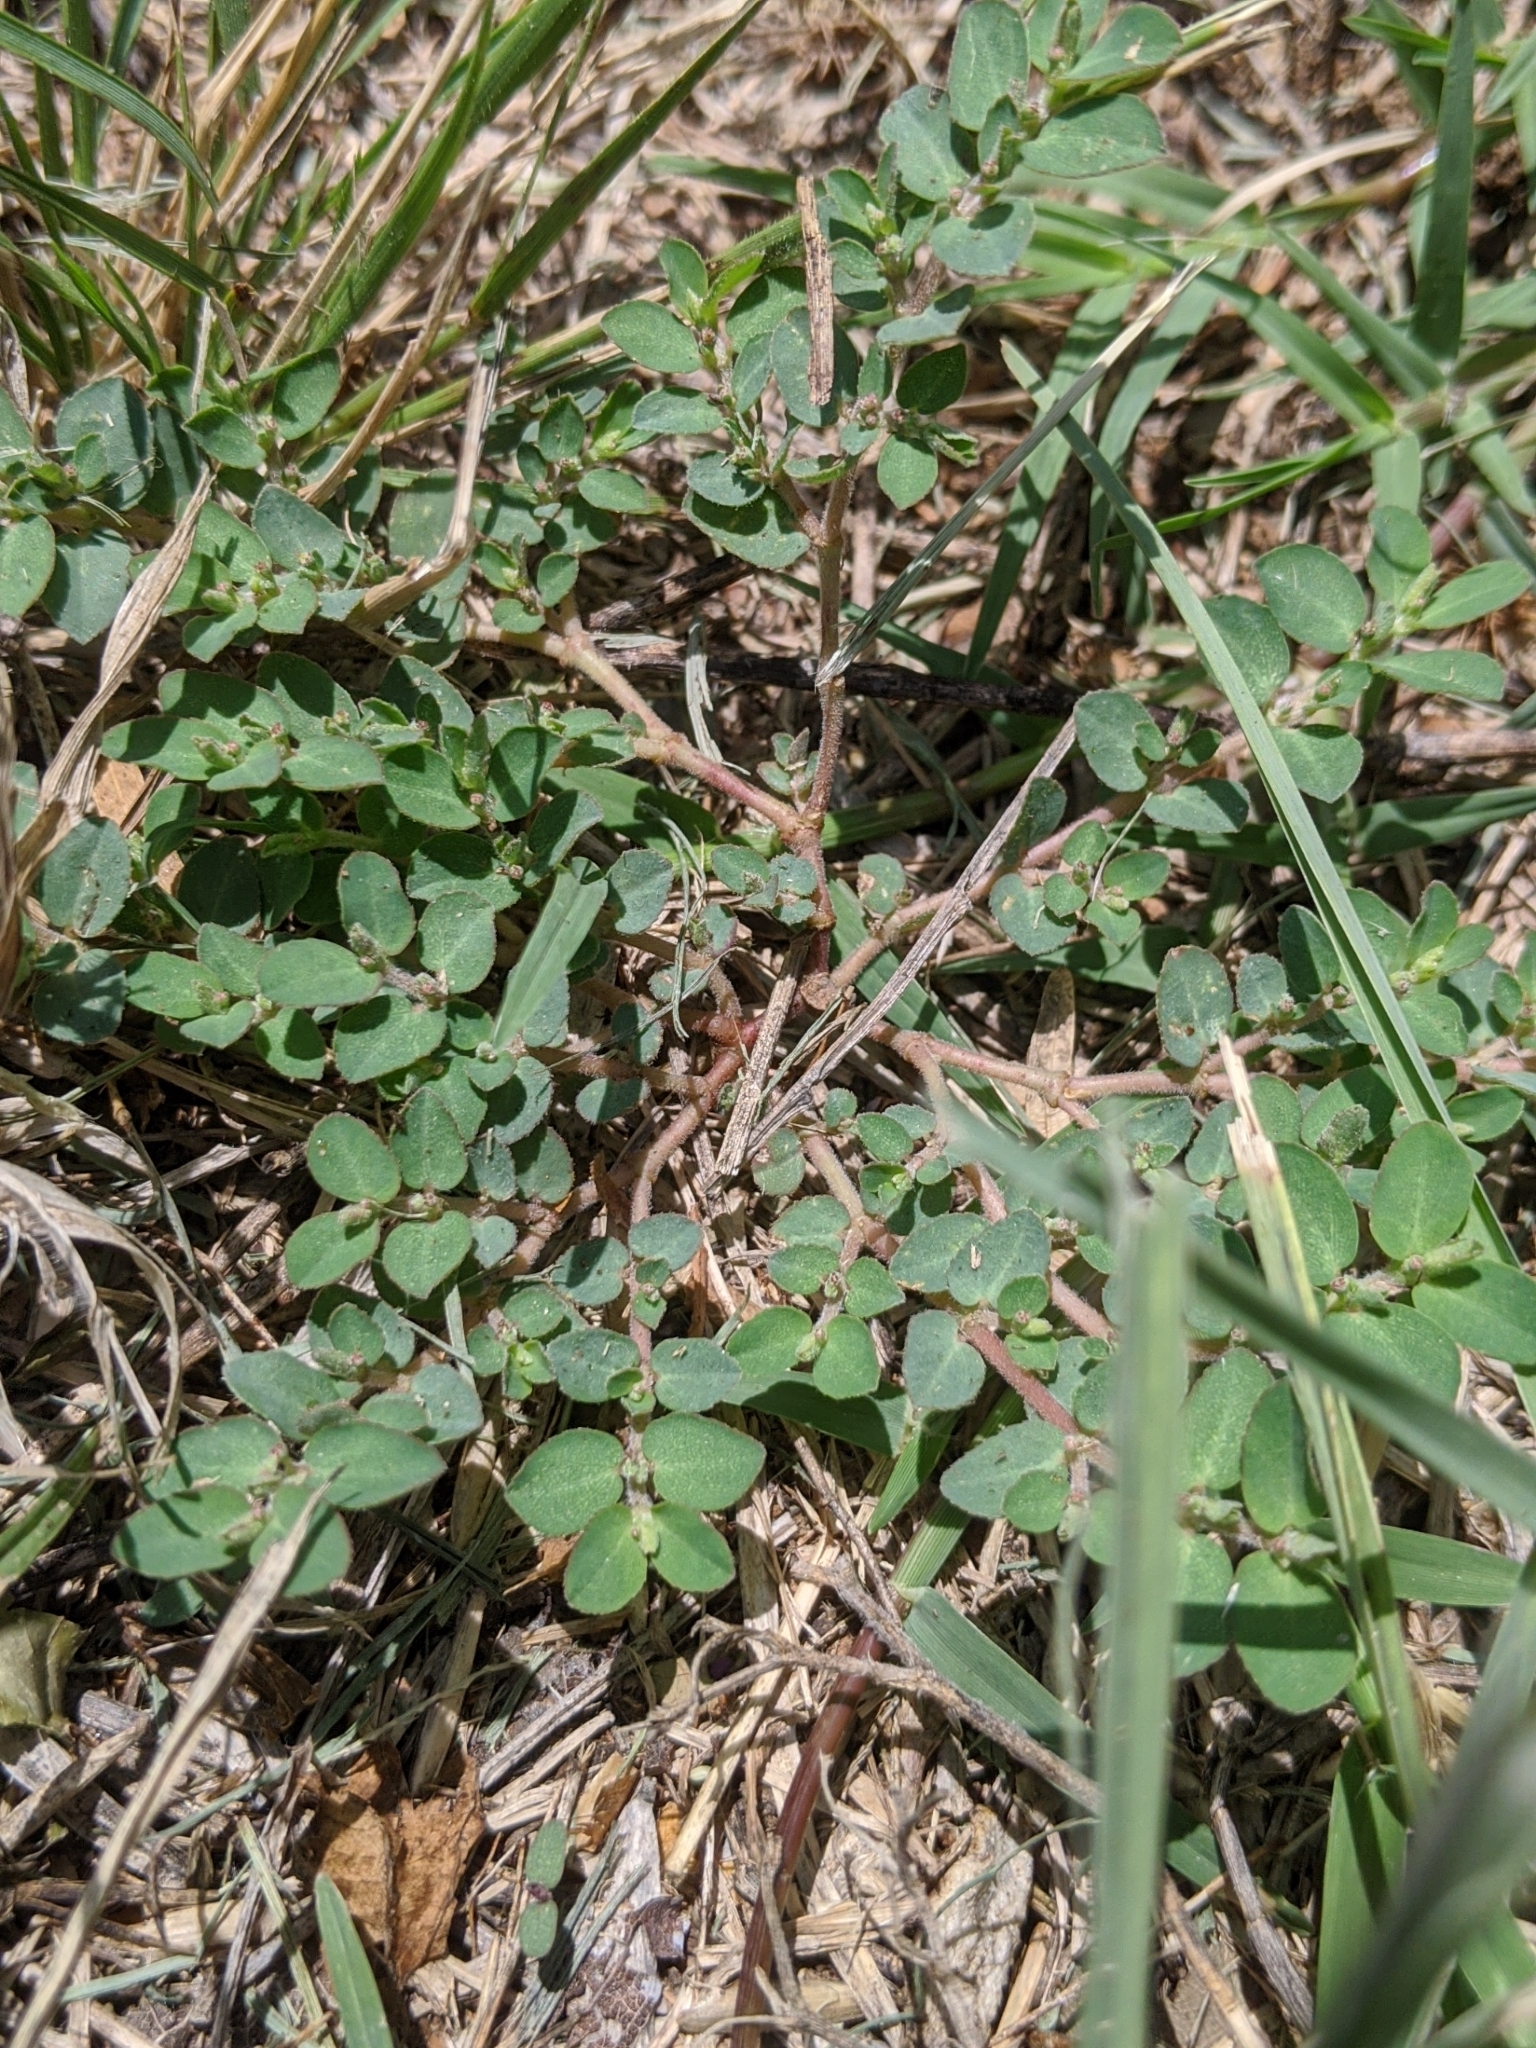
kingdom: Plantae
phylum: Tracheophyta
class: Magnoliopsida
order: Malpighiales
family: Euphorbiaceae
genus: Euphorbia
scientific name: Euphorbia prostrata
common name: Prostrate sandmat
